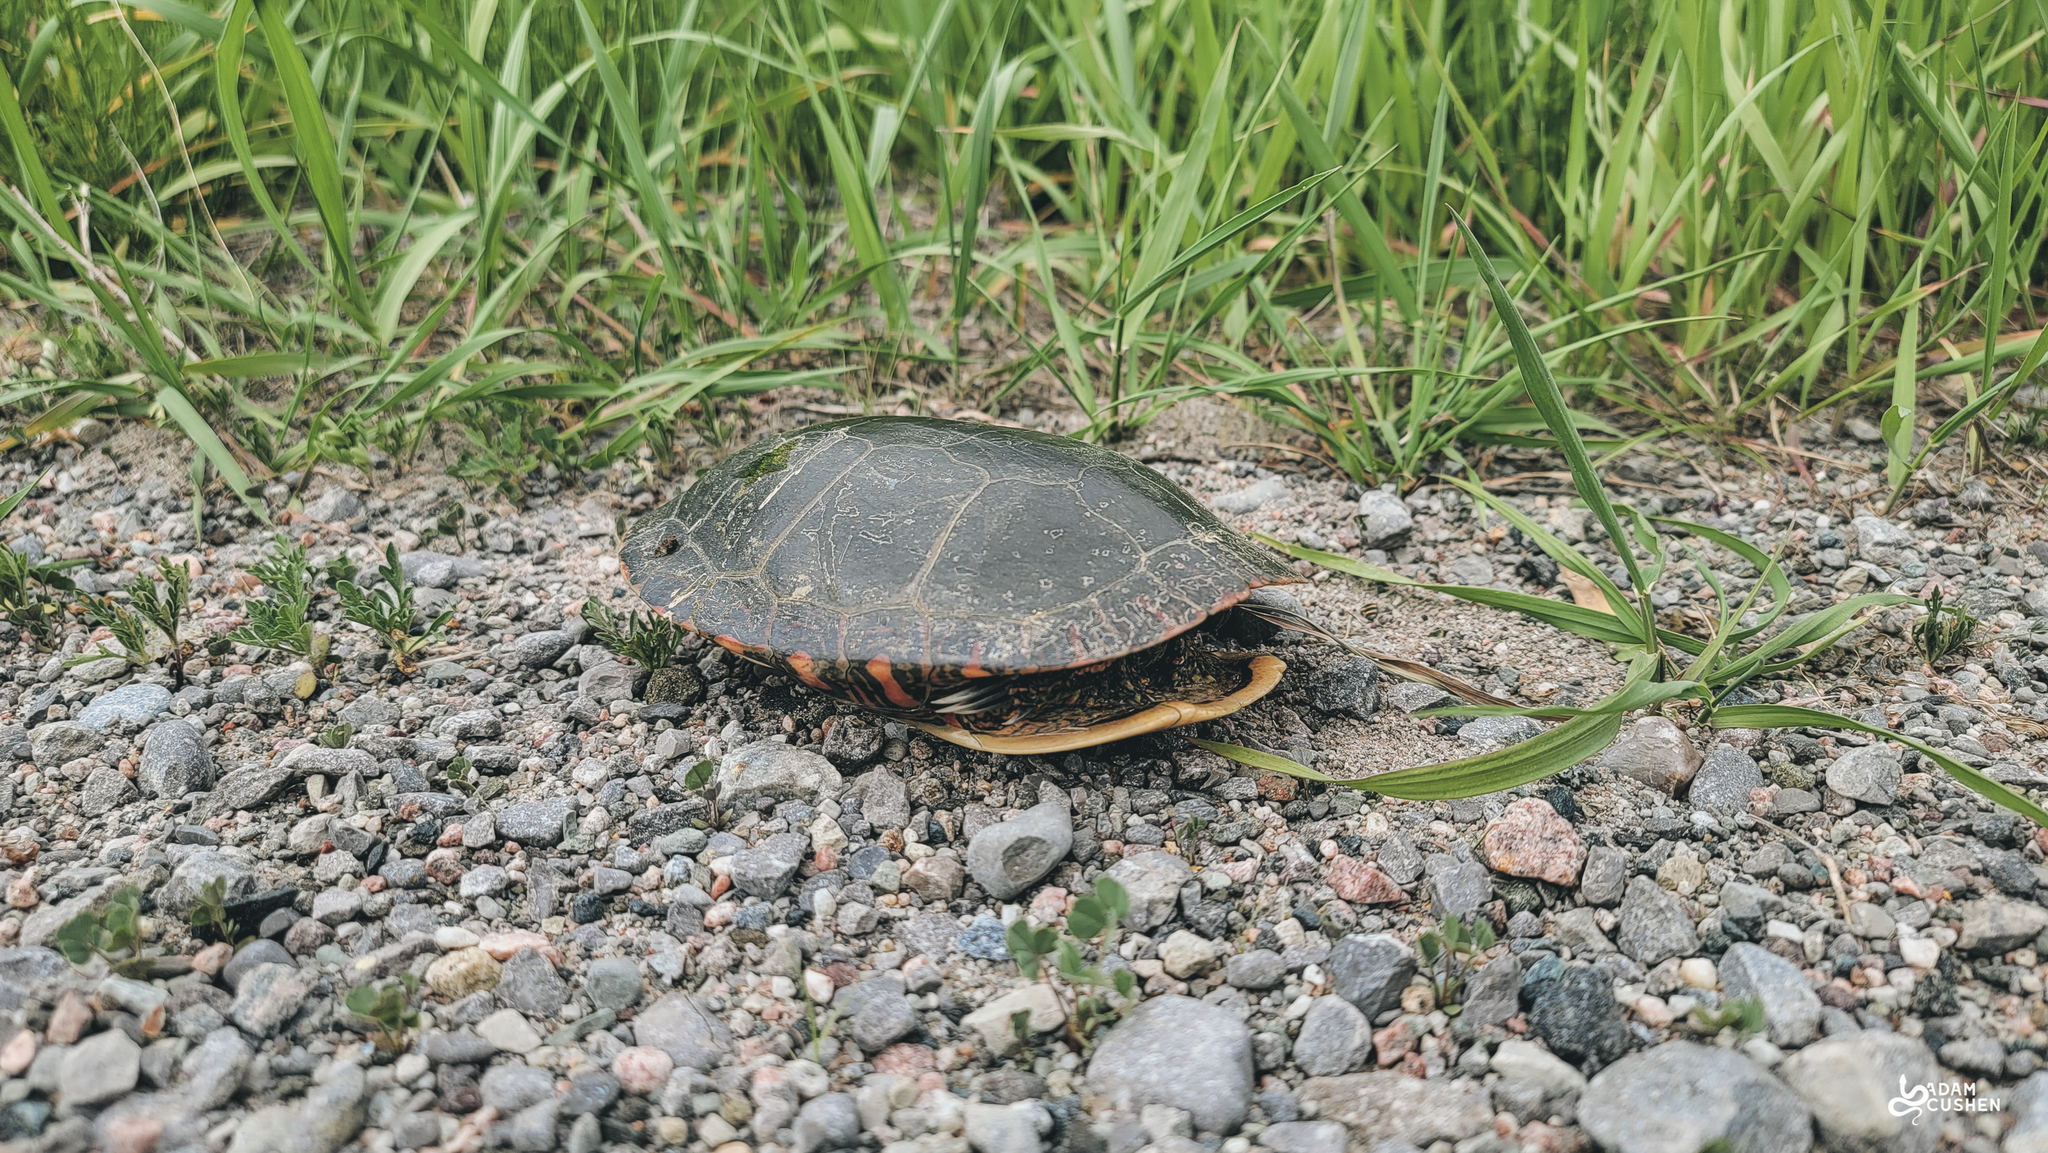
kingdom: Animalia
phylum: Chordata
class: Testudines
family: Emydidae
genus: Chrysemys
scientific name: Chrysemys picta
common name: Painted turtle
